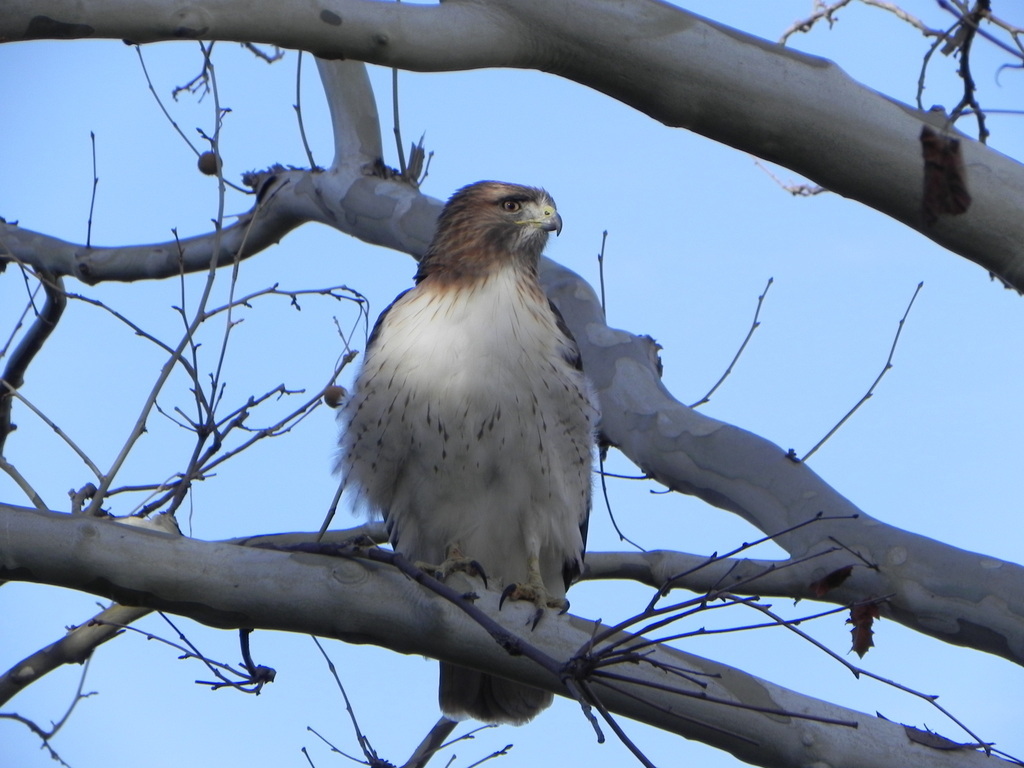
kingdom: Animalia
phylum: Chordata
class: Aves
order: Accipitriformes
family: Accipitridae
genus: Buteo
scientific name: Buteo jamaicensis
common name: Red-tailed hawk
